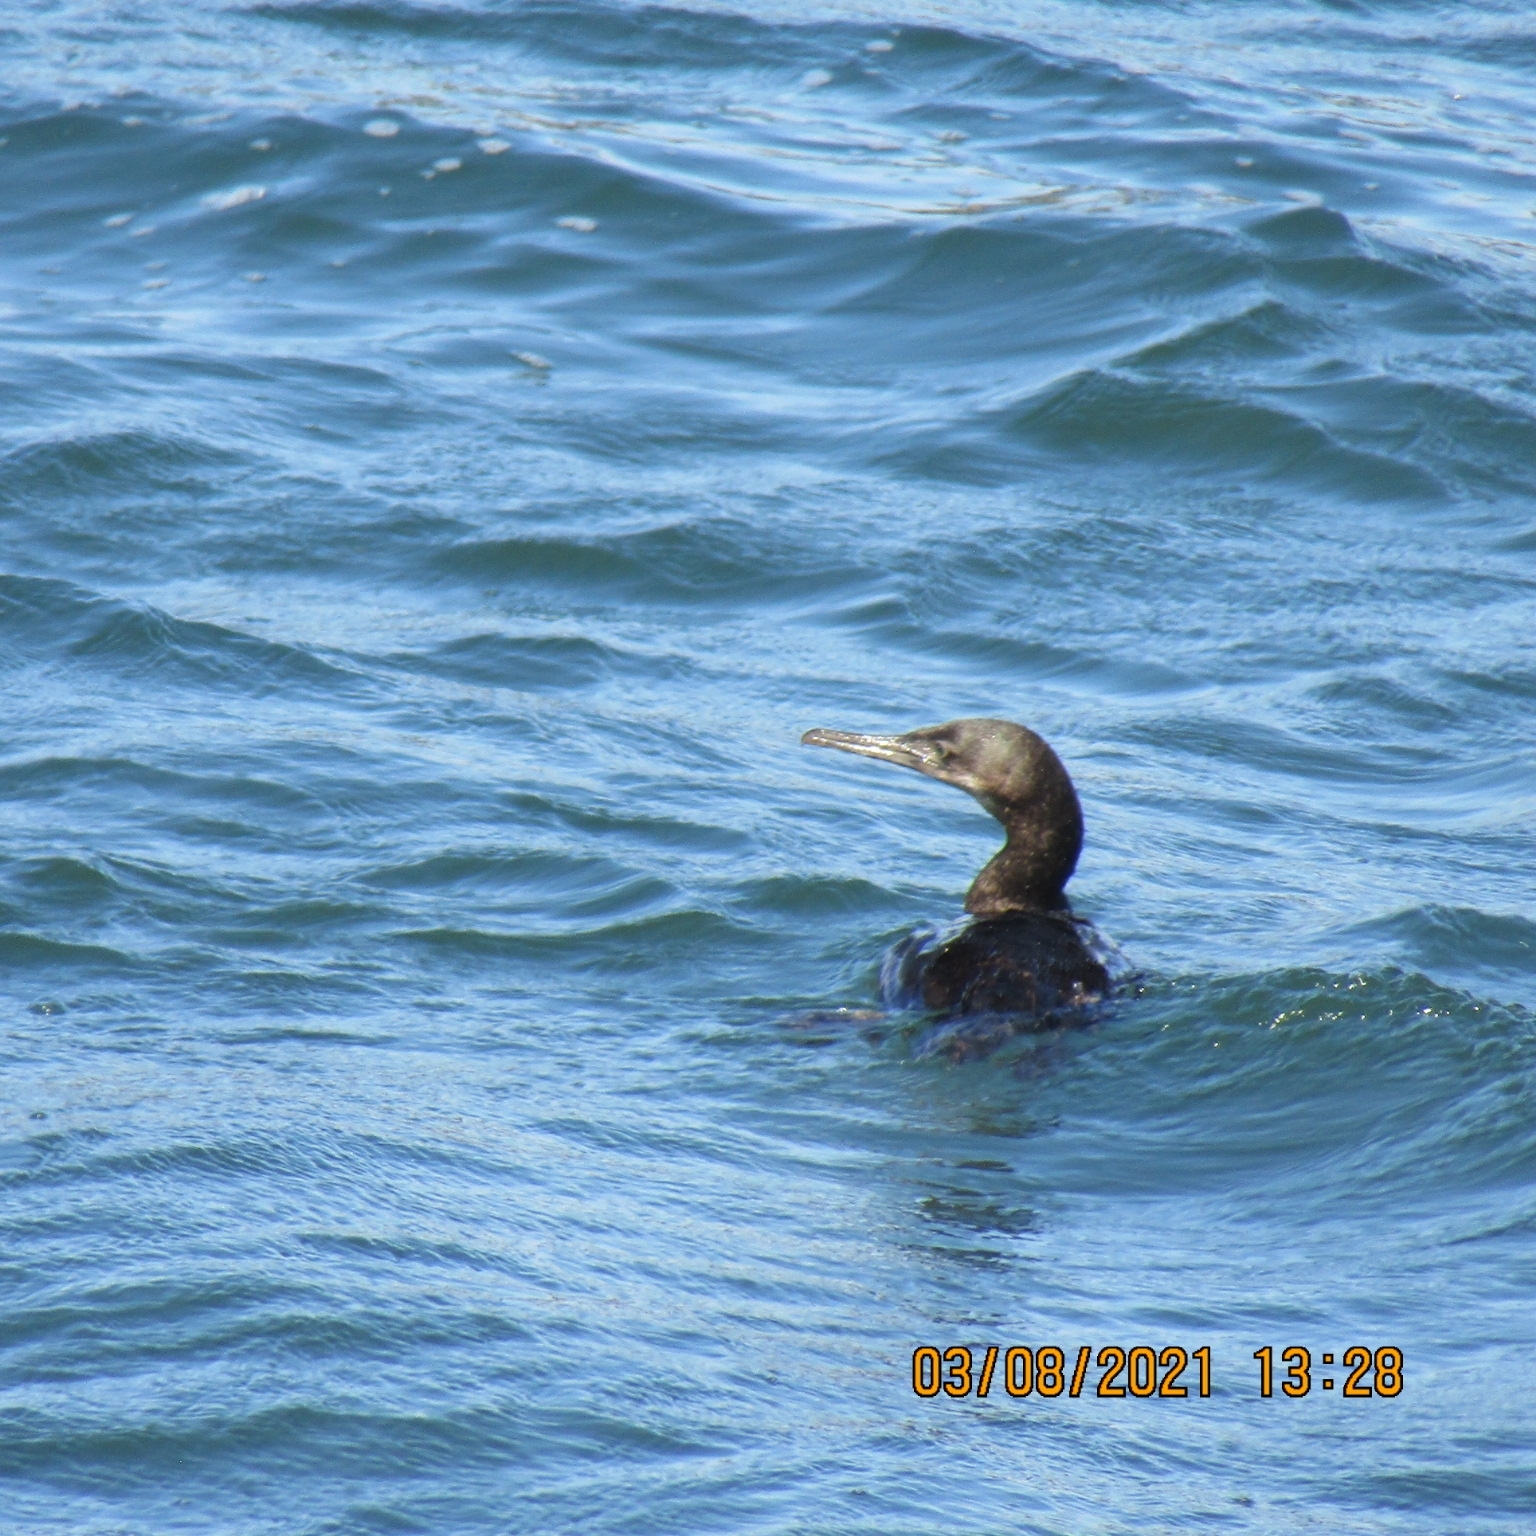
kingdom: Animalia
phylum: Chordata
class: Aves
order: Suliformes
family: Phalacrocoracidae
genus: Urile
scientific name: Urile penicillatus
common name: Brandt's cormorant
